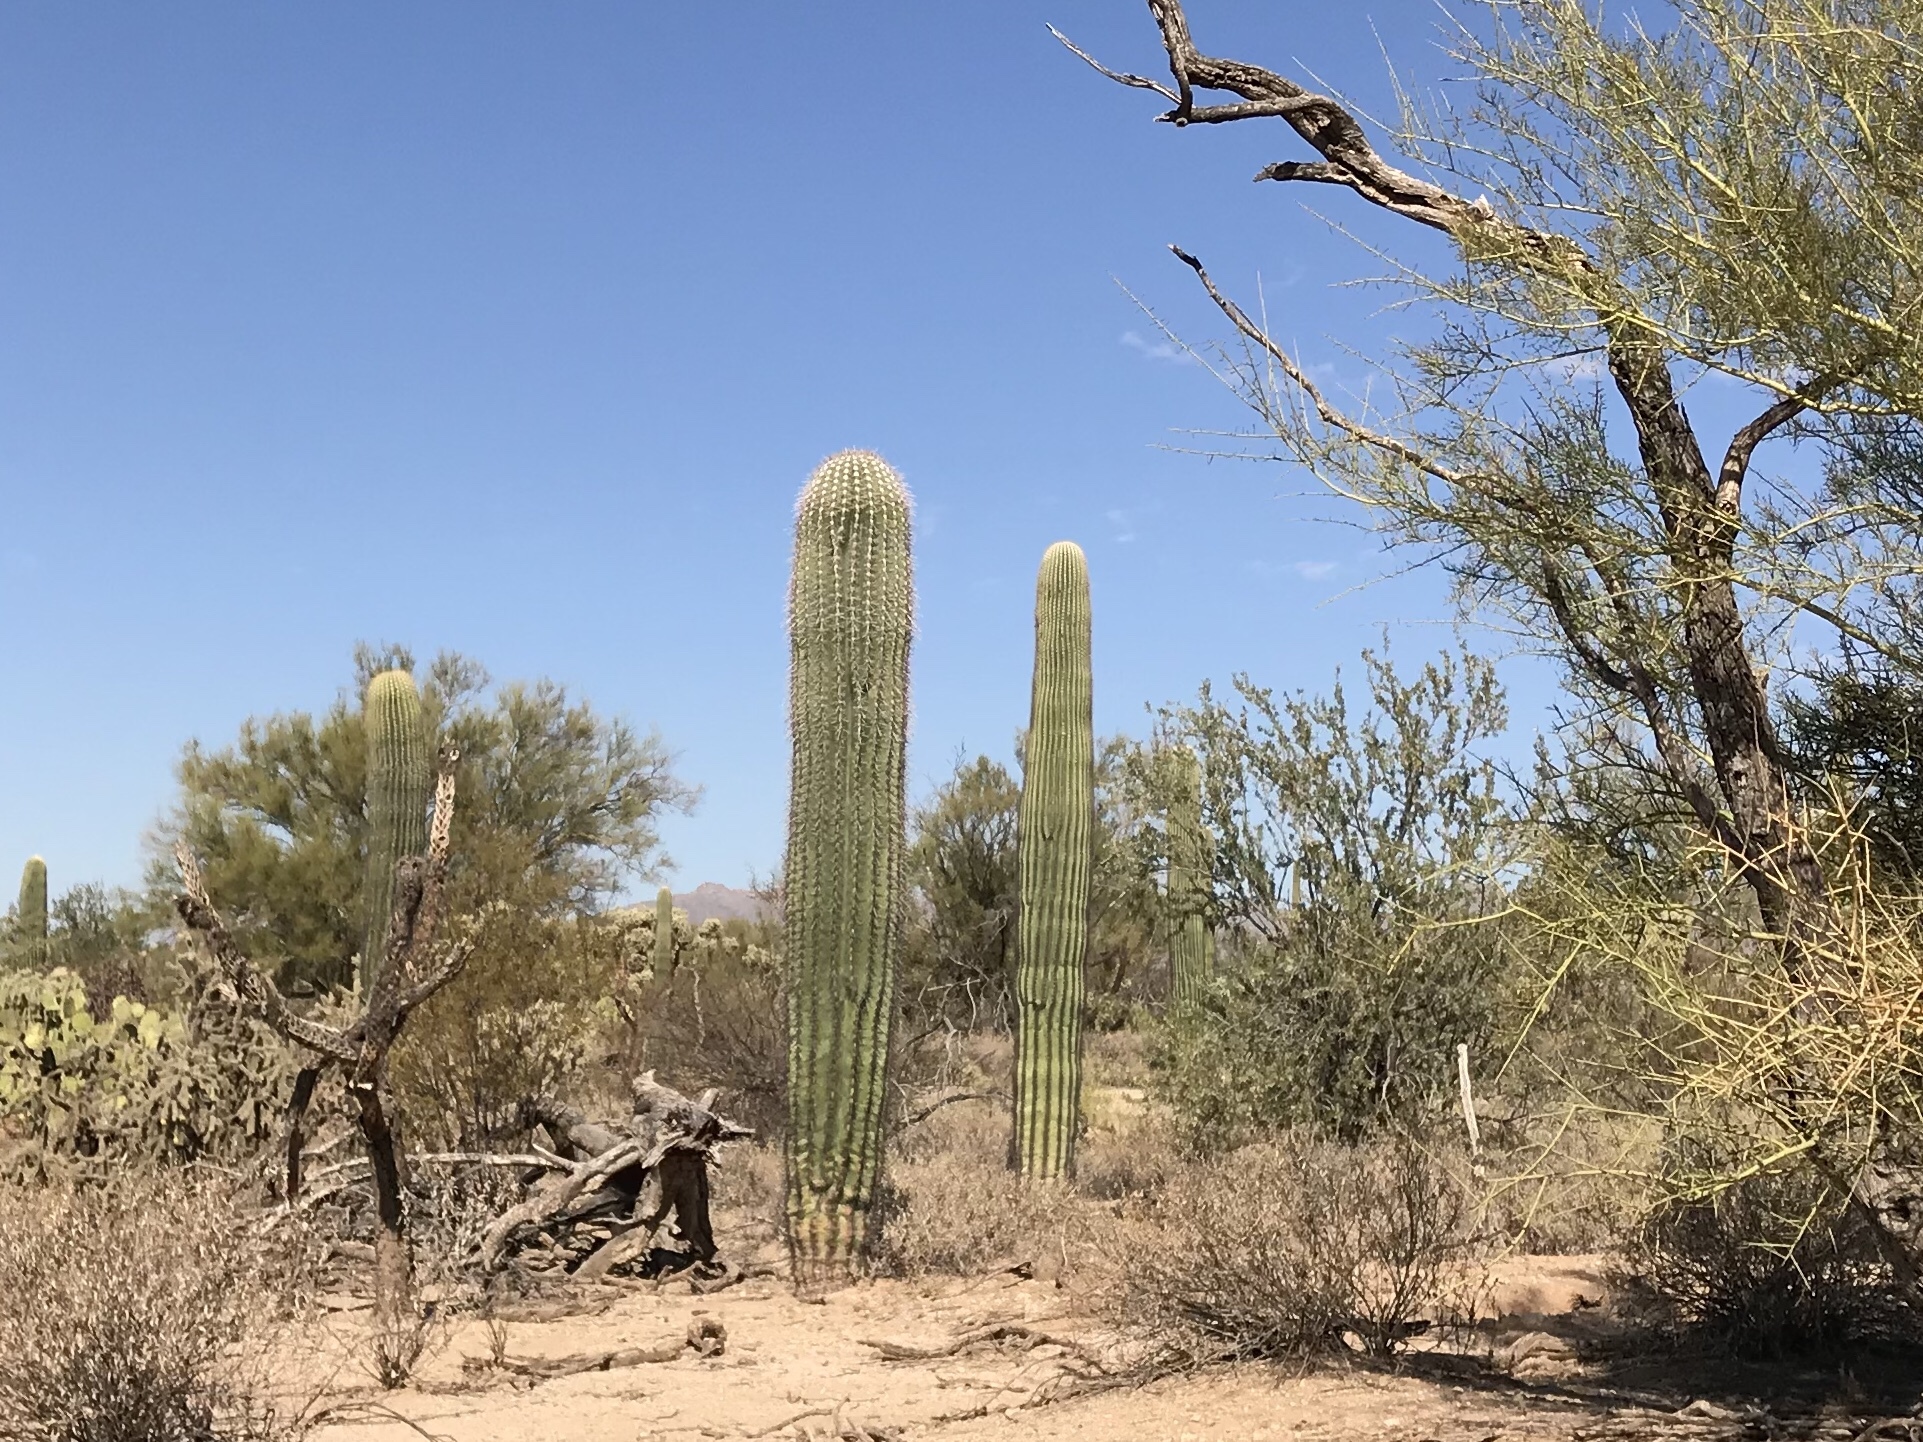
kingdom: Plantae
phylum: Tracheophyta
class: Magnoliopsida
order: Caryophyllales
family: Cactaceae
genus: Carnegiea
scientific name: Carnegiea gigantea
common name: Saguaro
